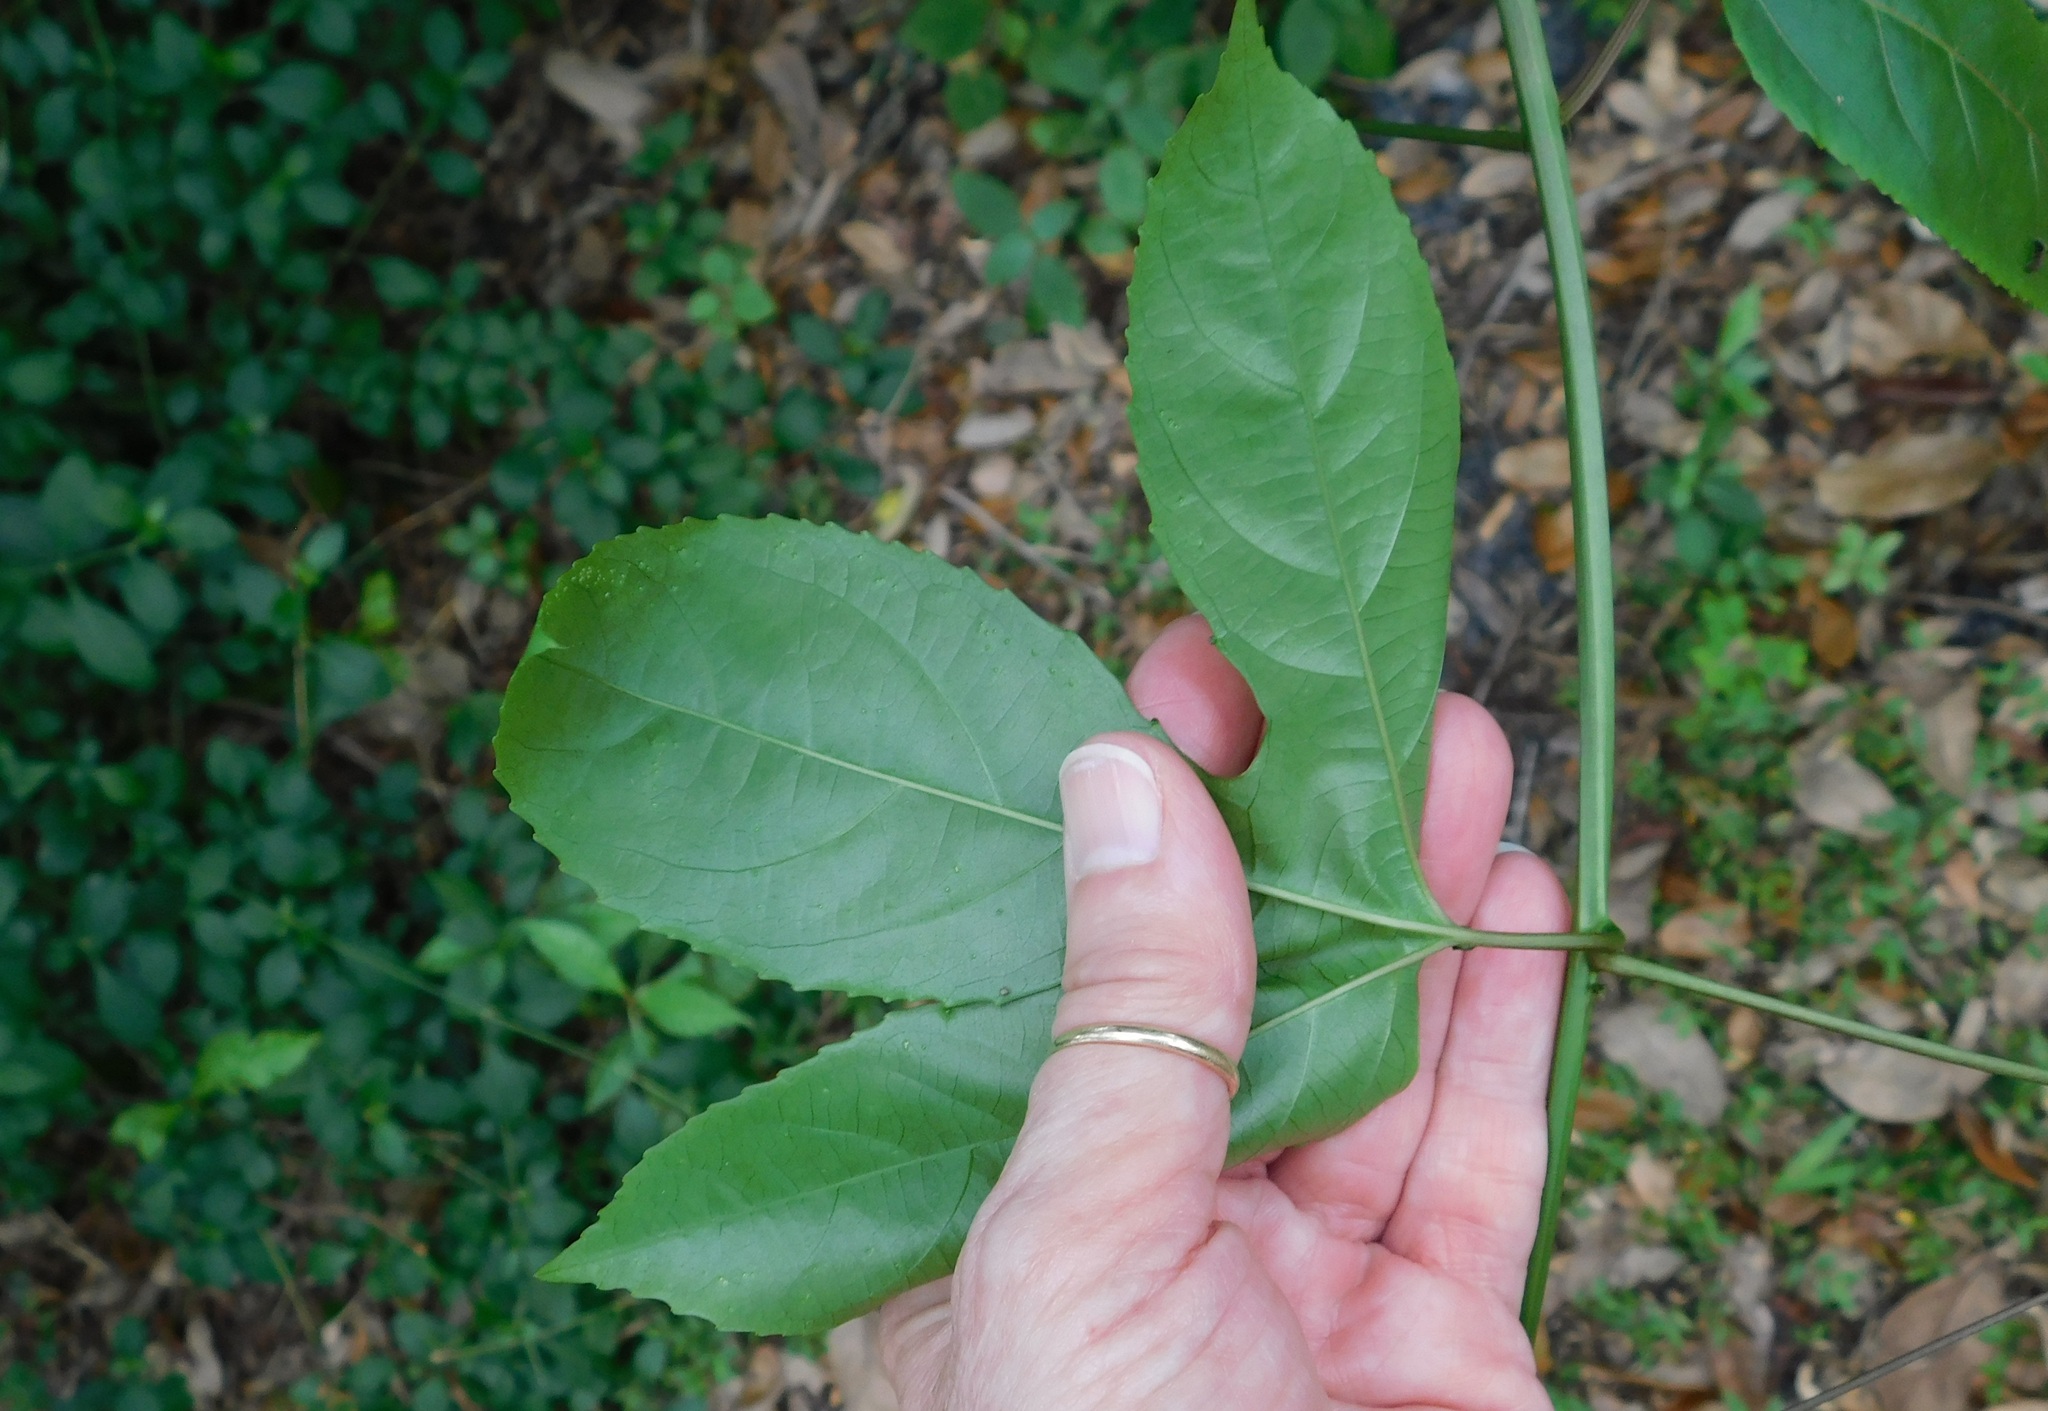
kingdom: Plantae
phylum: Tracheophyta
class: Magnoliopsida
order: Malpighiales
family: Passifloraceae
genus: Passiflora
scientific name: Passiflora edulis
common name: Purple granadilla
